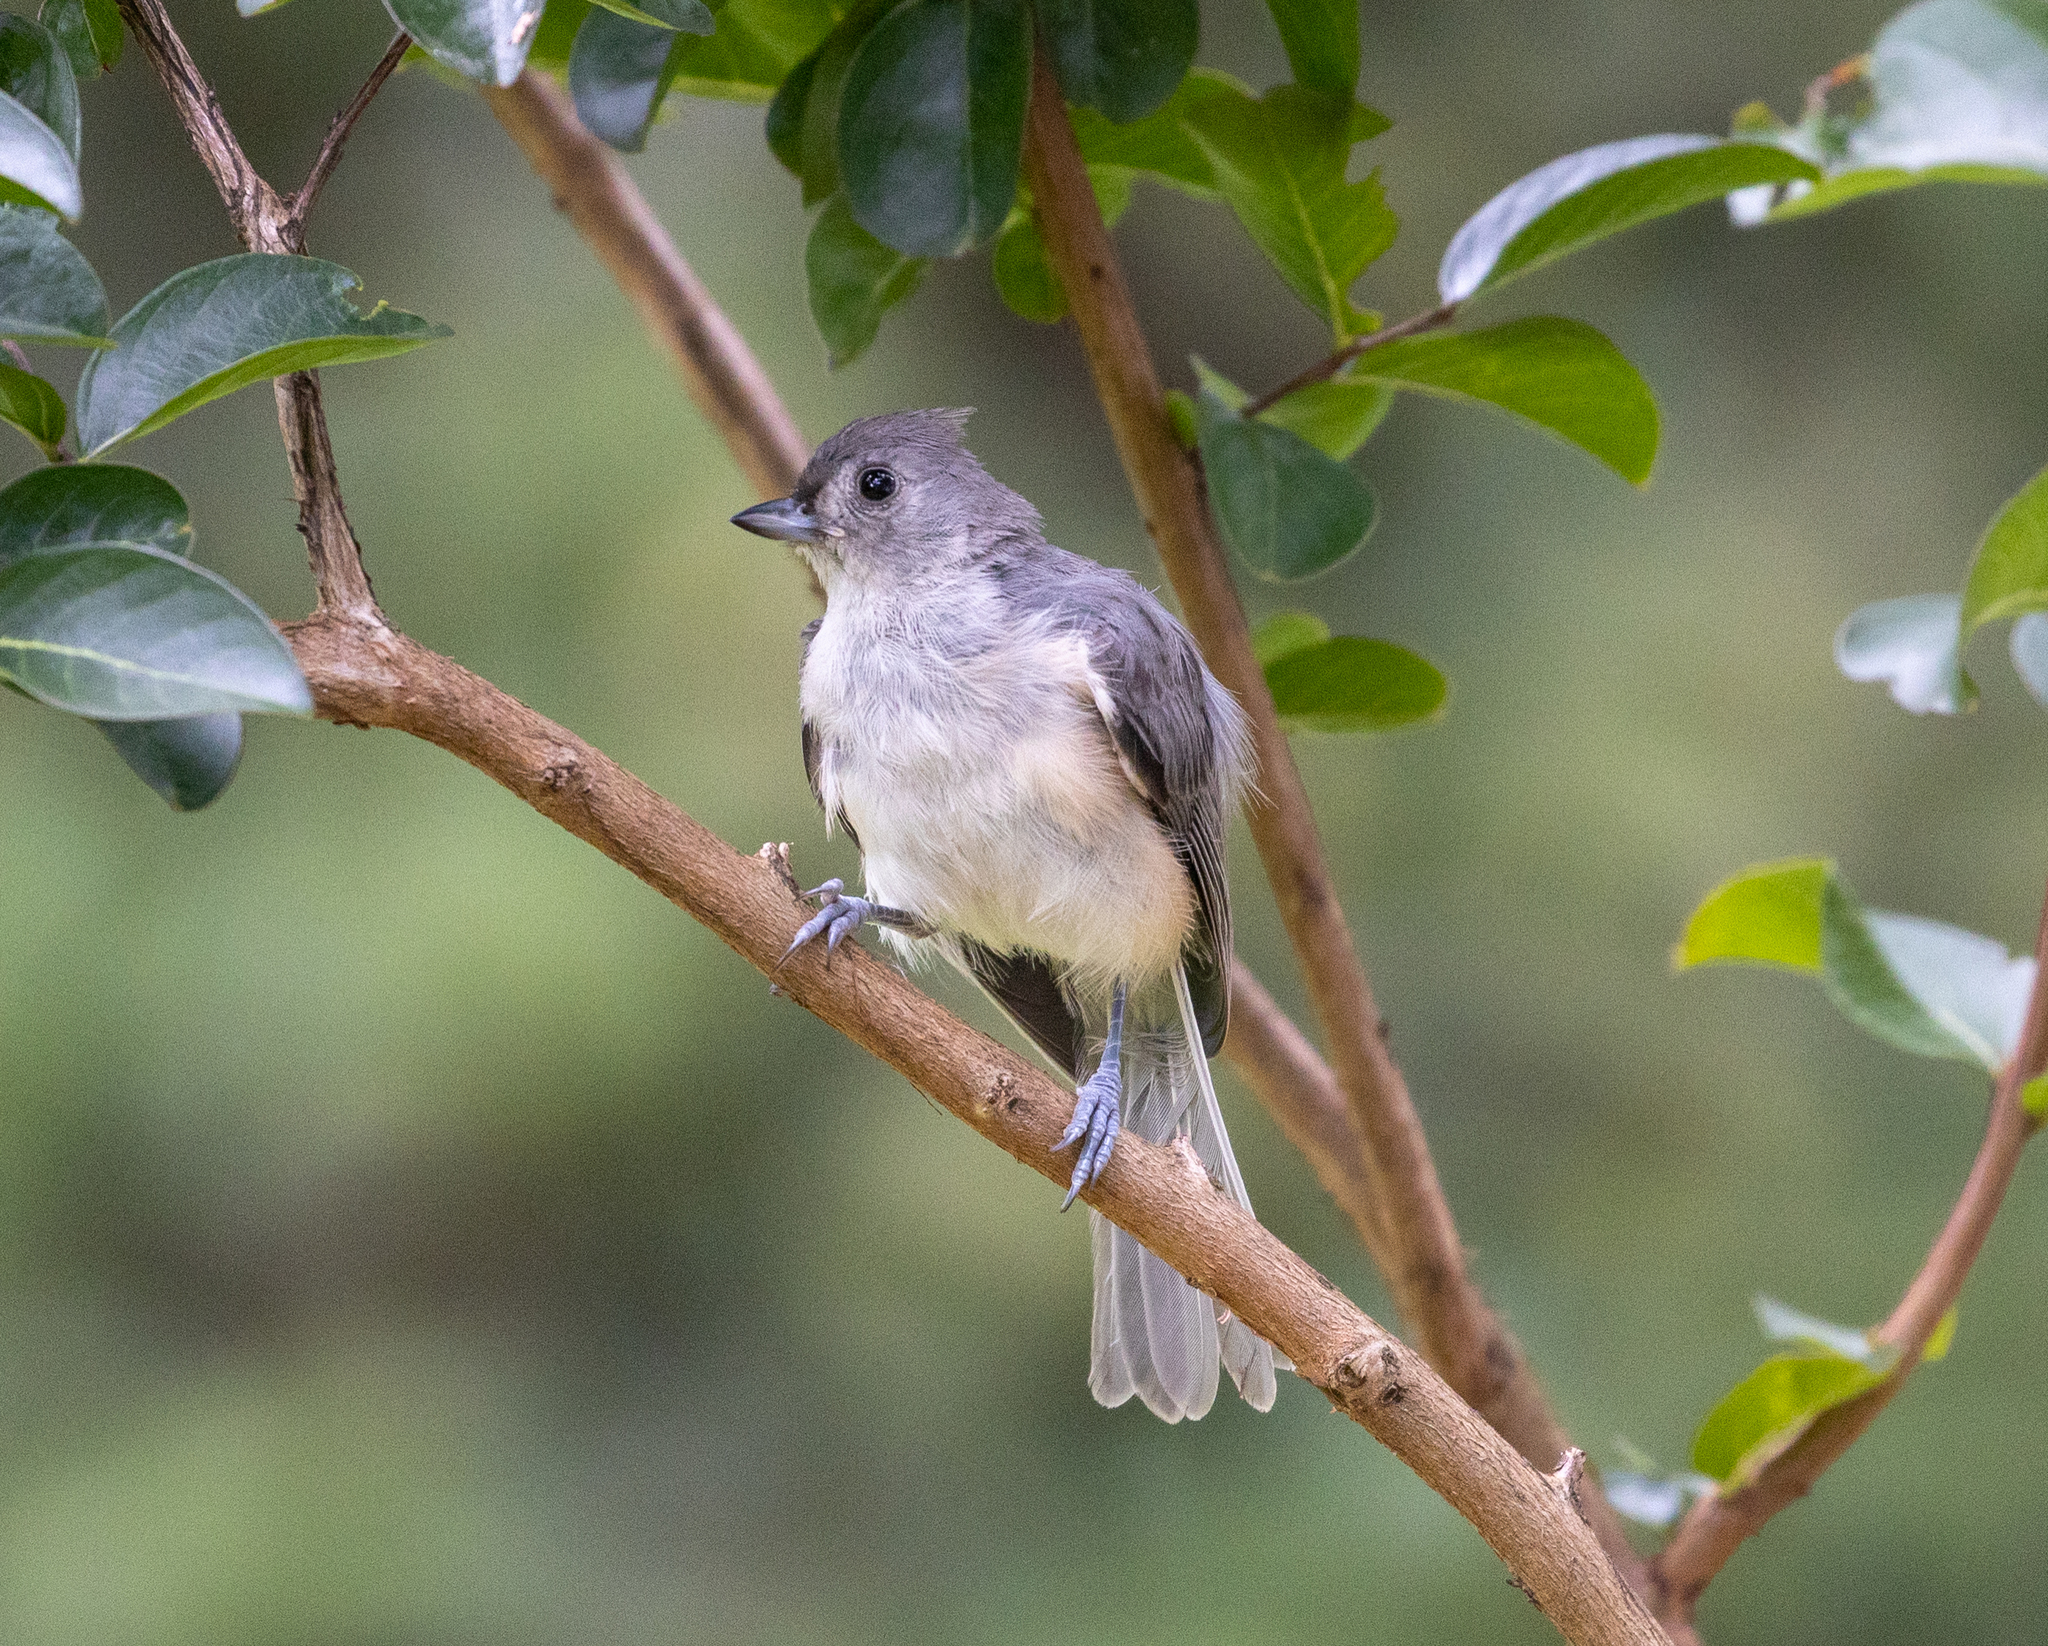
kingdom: Animalia
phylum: Chordata
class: Aves
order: Passeriformes
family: Paridae
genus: Baeolophus
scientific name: Baeolophus bicolor
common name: Tufted titmouse
